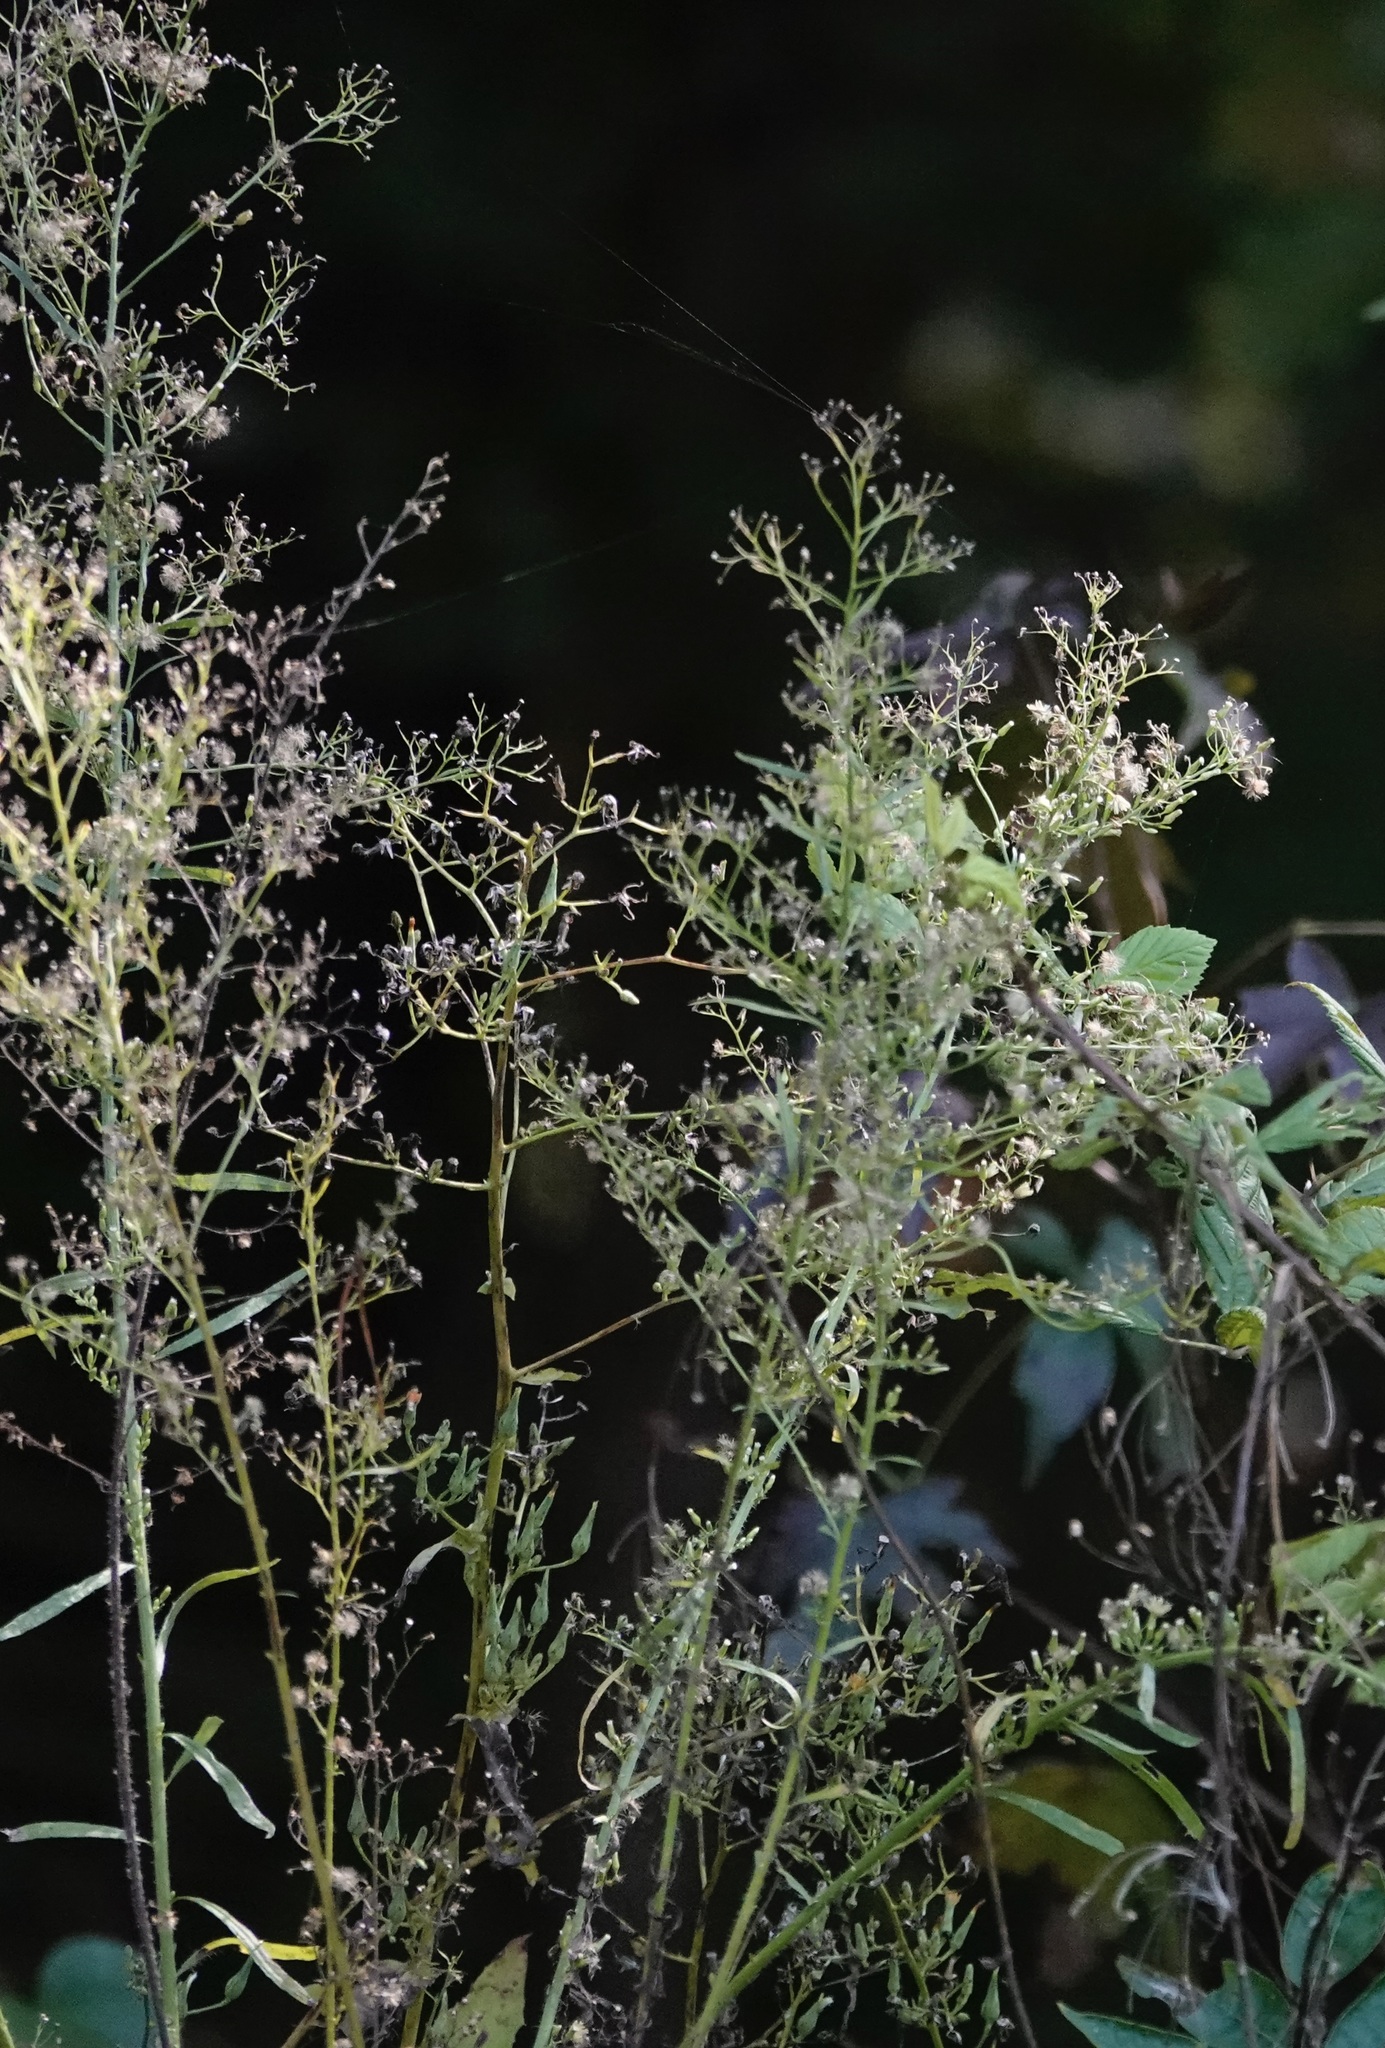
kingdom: Plantae
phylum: Tracheophyta
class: Magnoliopsida
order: Asterales
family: Asteraceae
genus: Erigeron
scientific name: Erigeron canadensis
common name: Canadian fleabane
